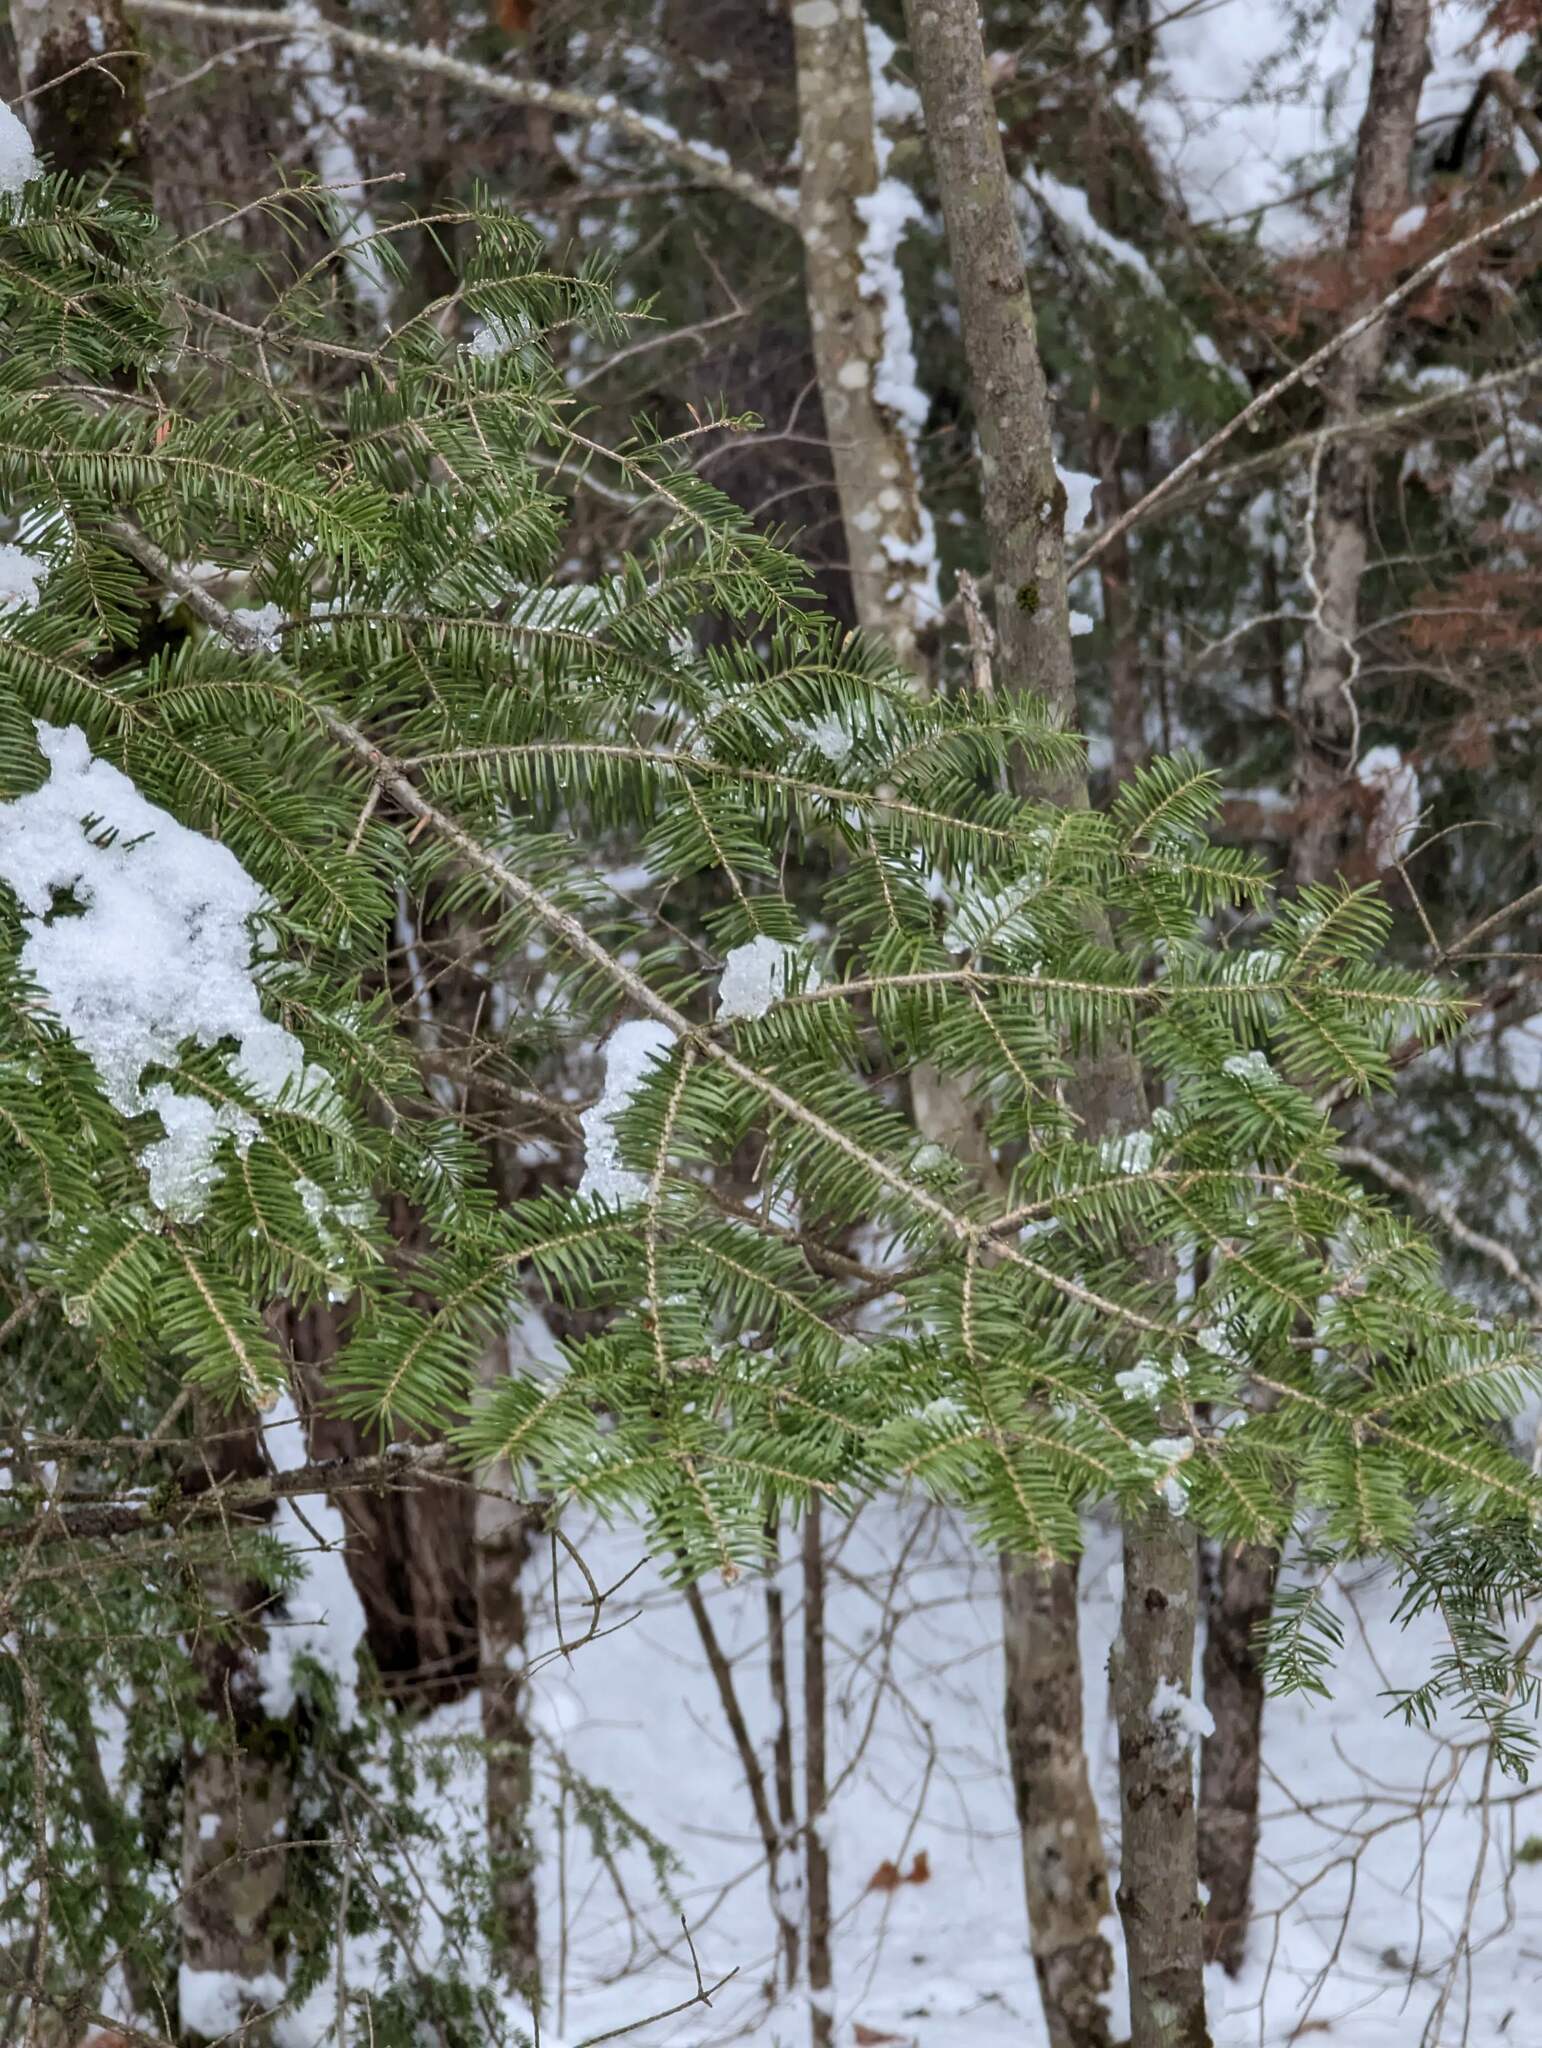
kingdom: Plantae
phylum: Tracheophyta
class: Pinopsida
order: Pinales
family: Pinaceae
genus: Abies
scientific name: Abies balsamea
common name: Balsam fir
